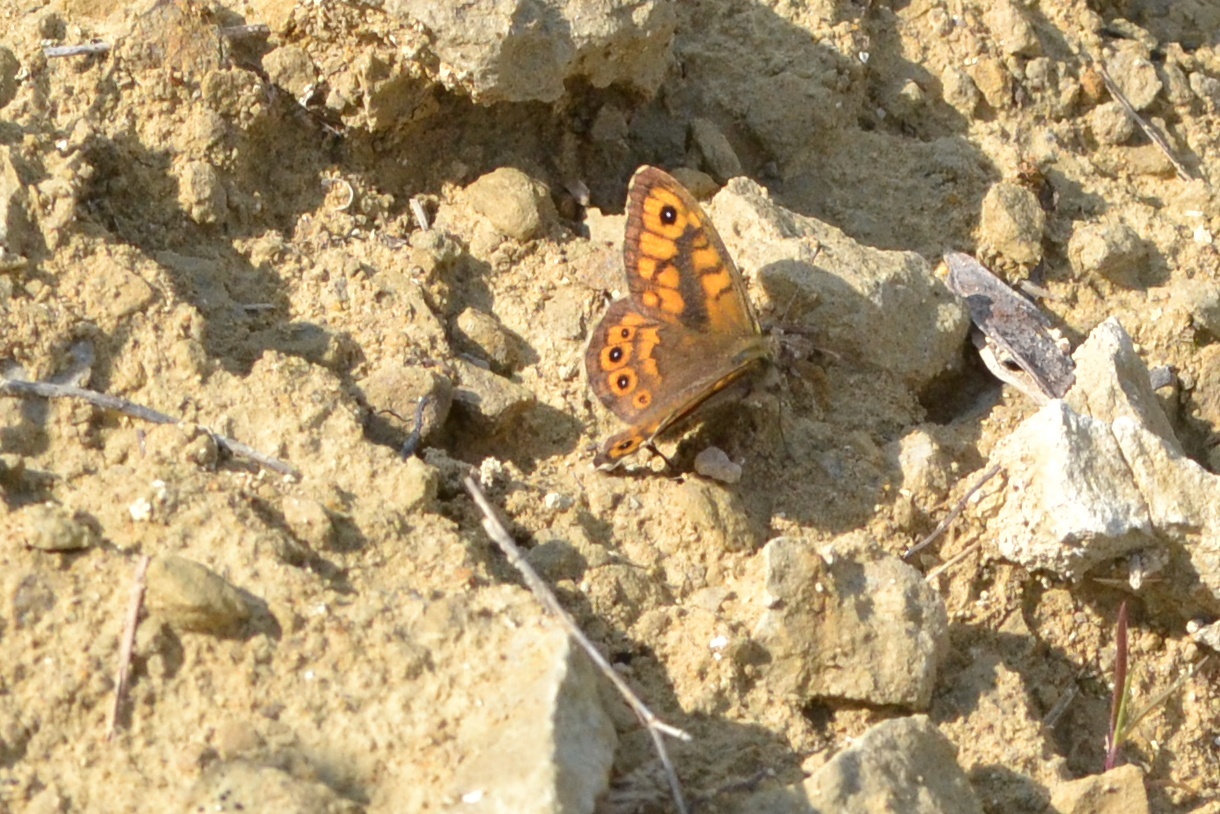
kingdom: Animalia
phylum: Arthropoda
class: Insecta
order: Lepidoptera
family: Nymphalidae
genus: Pararge
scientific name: Pararge Lasiommata megera
